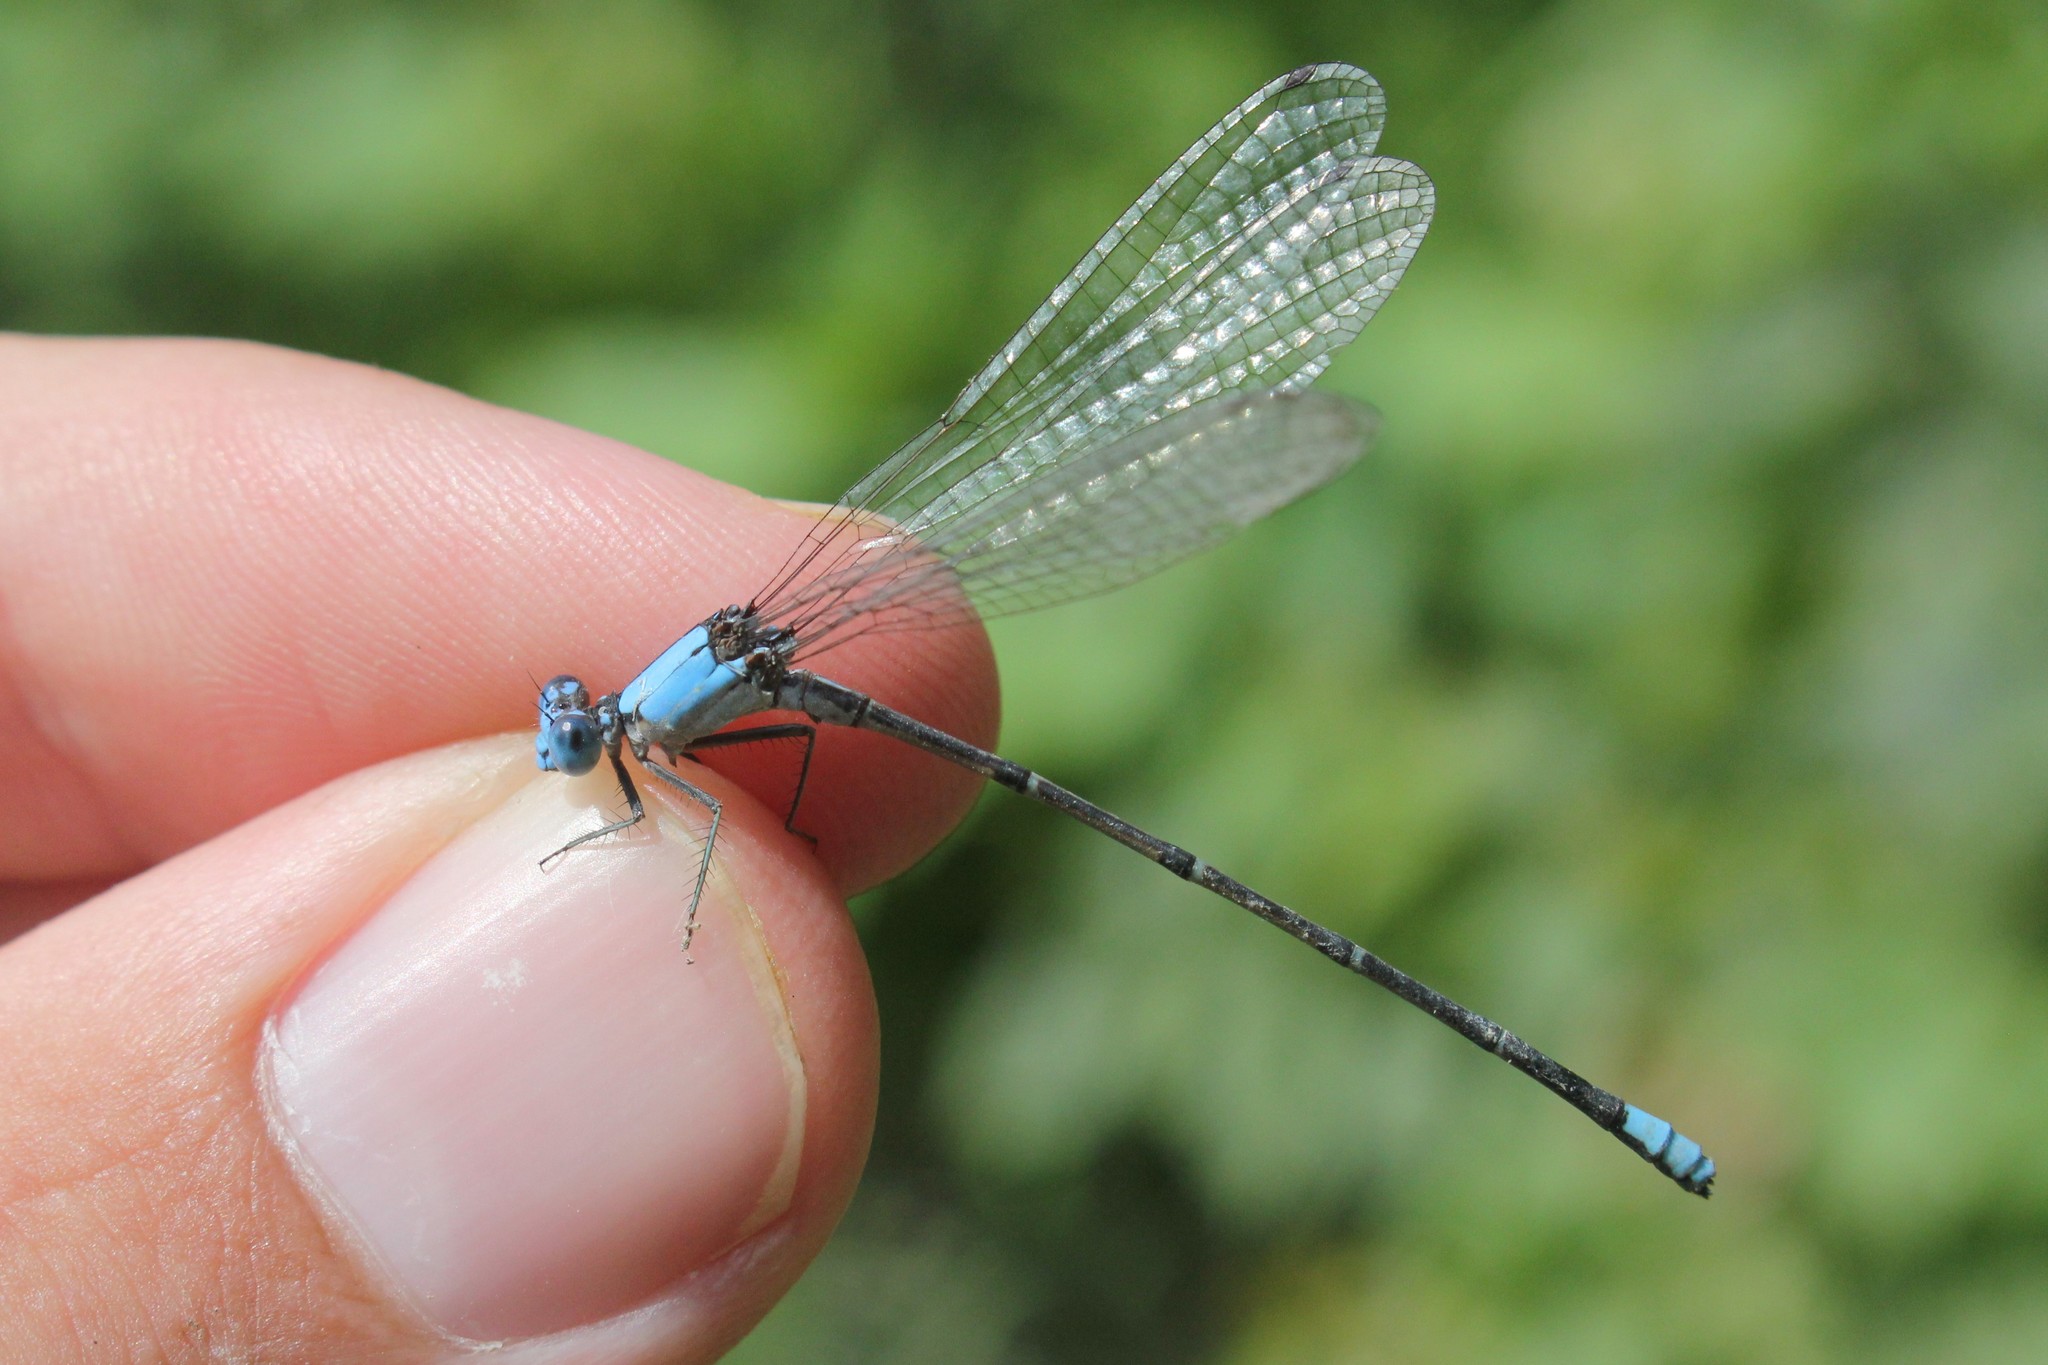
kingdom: Animalia
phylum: Arthropoda
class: Insecta
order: Odonata
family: Coenagrionidae
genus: Argia
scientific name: Argia apicalis
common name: Blue-fronted dancer
